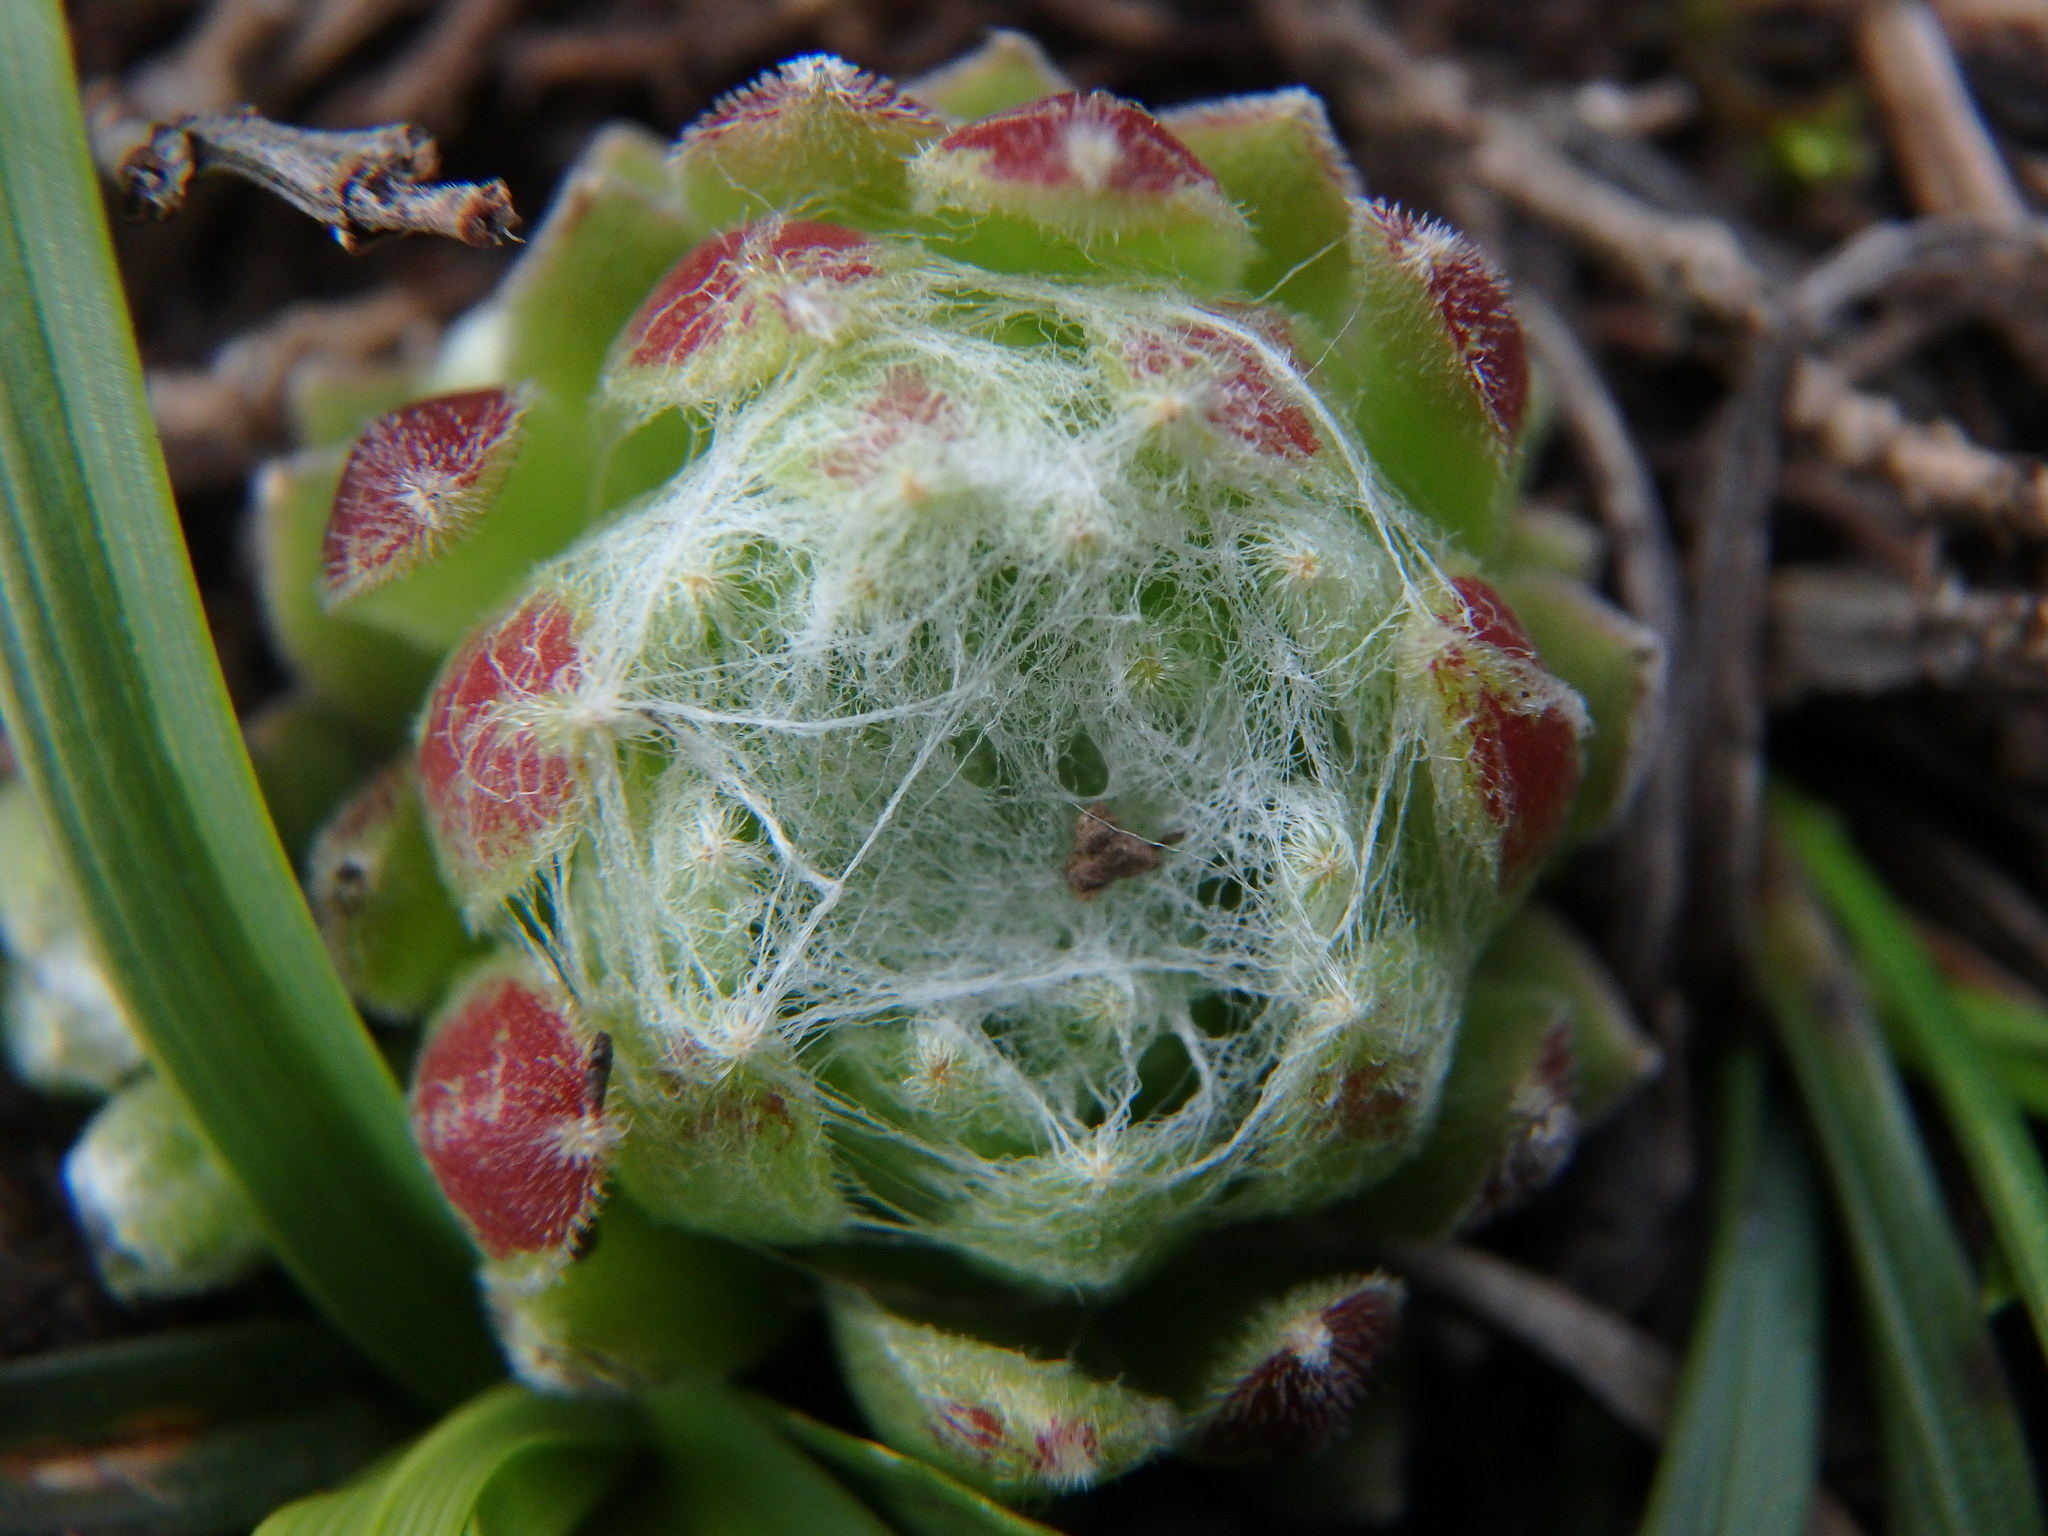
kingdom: Plantae
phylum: Tracheophyta
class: Magnoliopsida
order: Saxifragales
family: Crassulaceae
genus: Sempervivum
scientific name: Sempervivum arachnoideum
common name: Cobweb house-leek
